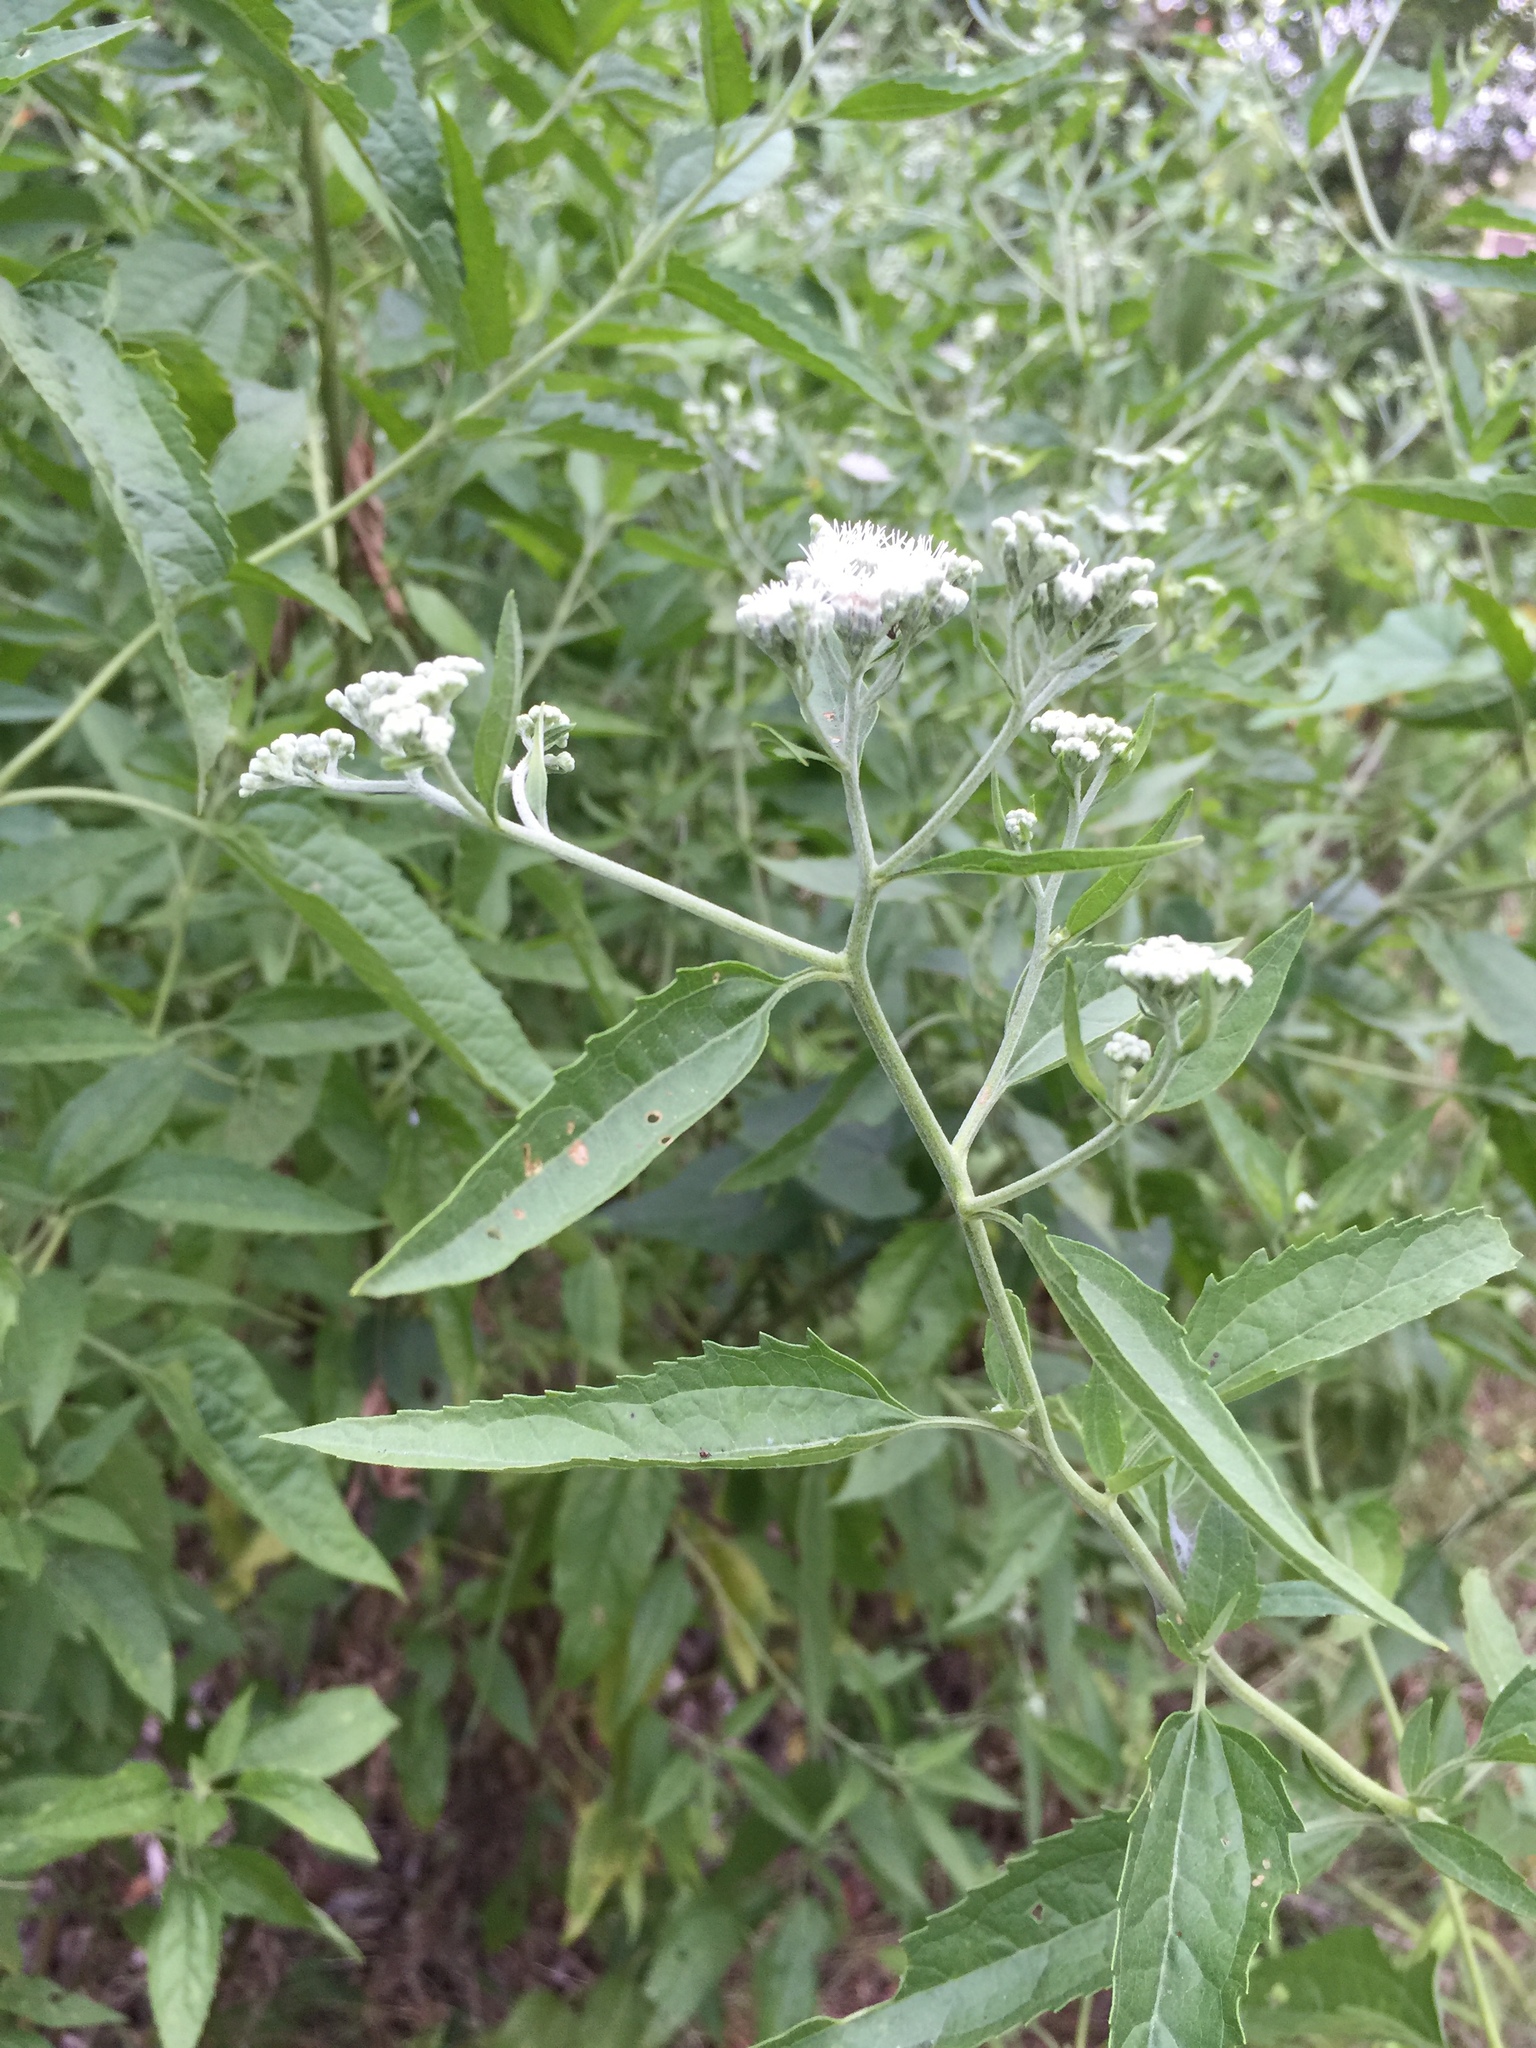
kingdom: Plantae
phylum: Tracheophyta
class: Magnoliopsida
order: Asterales
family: Asteraceae
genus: Eupatorium
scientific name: Eupatorium serotinum
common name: Late boneset
